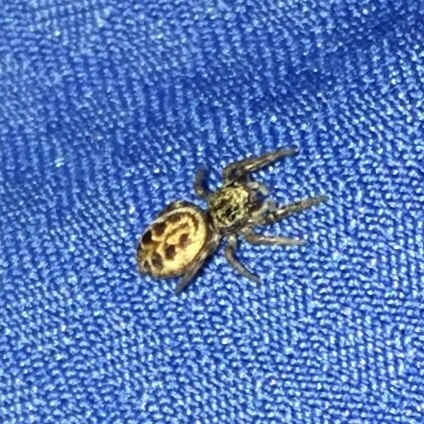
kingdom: Animalia
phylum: Arthropoda
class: Arachnida
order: Araneae
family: Salticidae
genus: Pelegrina
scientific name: Pelegrina proterva
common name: Common white-cheeked jumping spider
